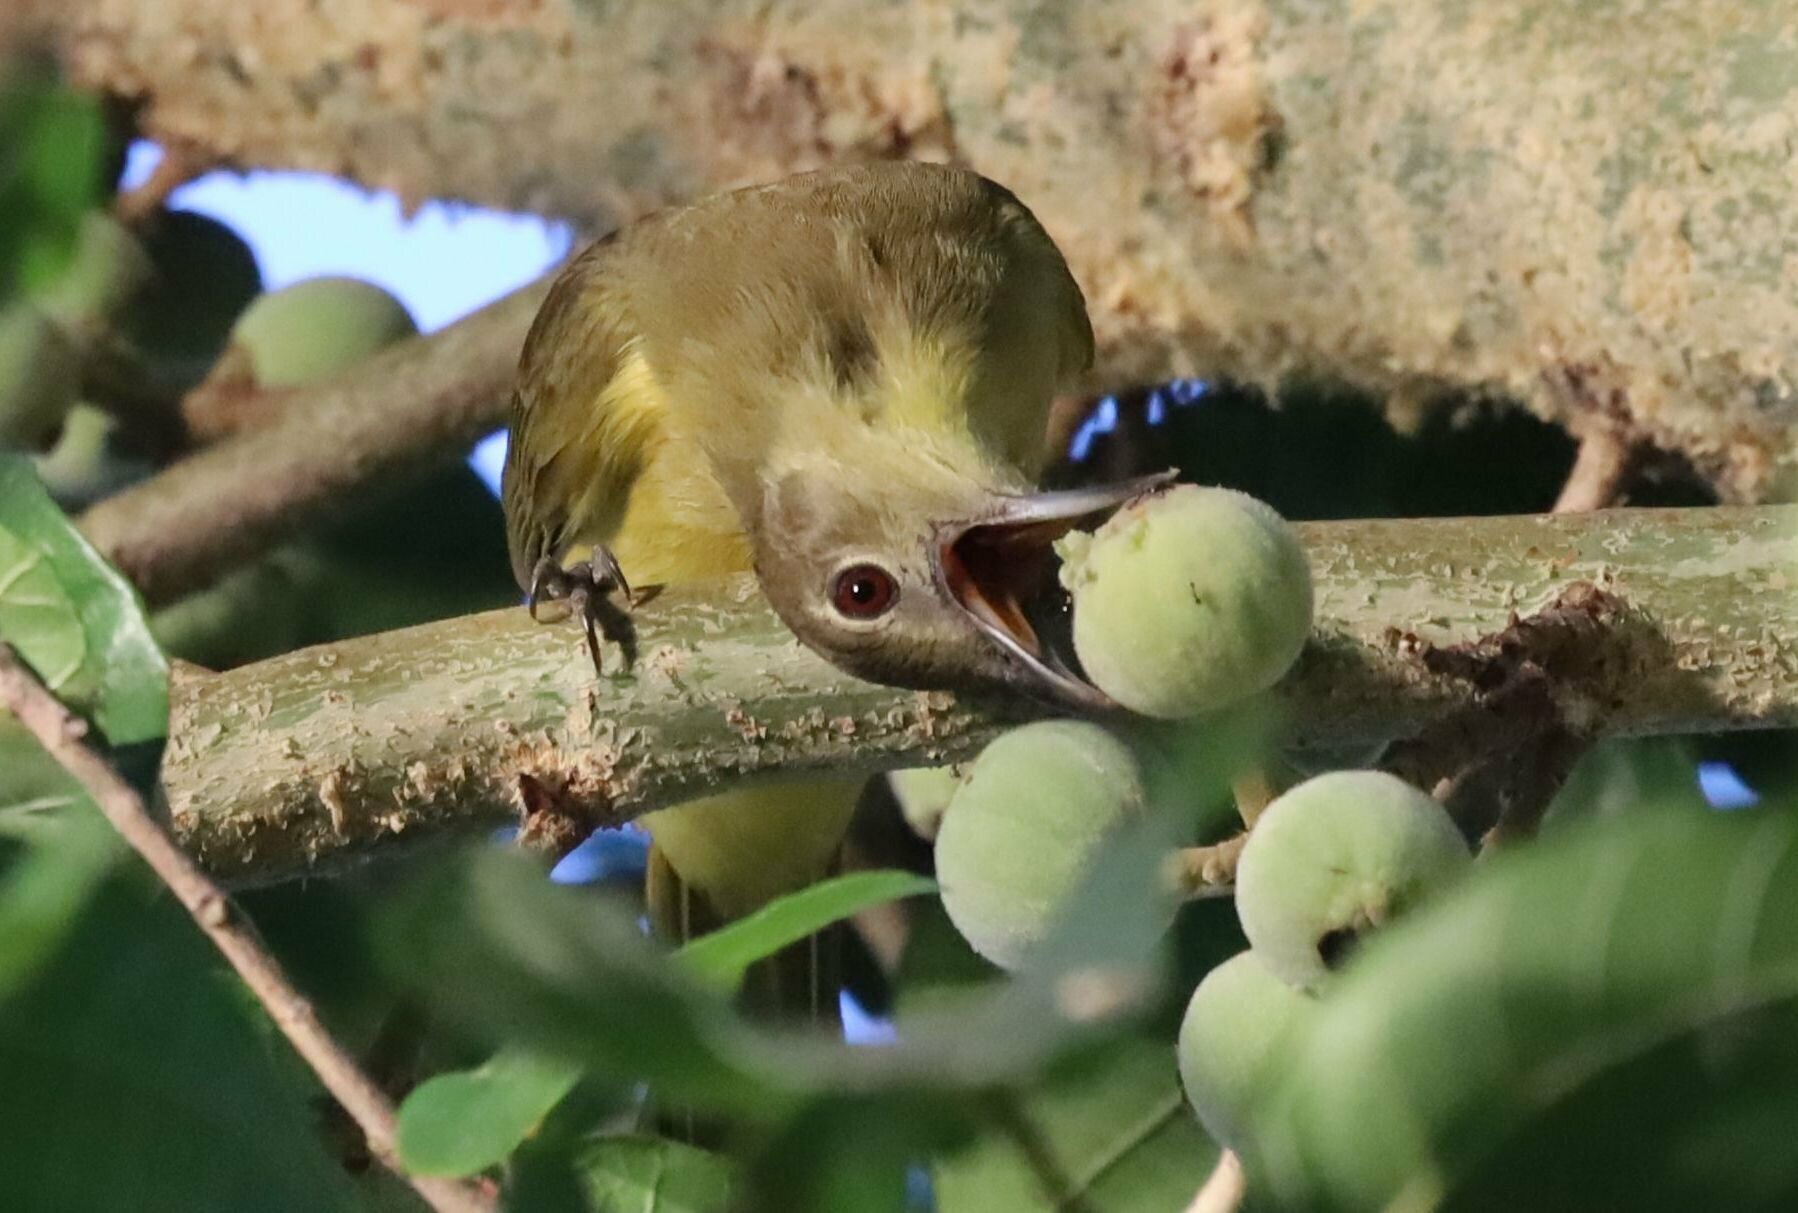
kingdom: Animalia
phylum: Chordata
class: Aves
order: Passeriformes
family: Pycnonotidae
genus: Chlorocichla
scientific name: Chlorocichla flaviventris
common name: Yellow-bellied greenbul
